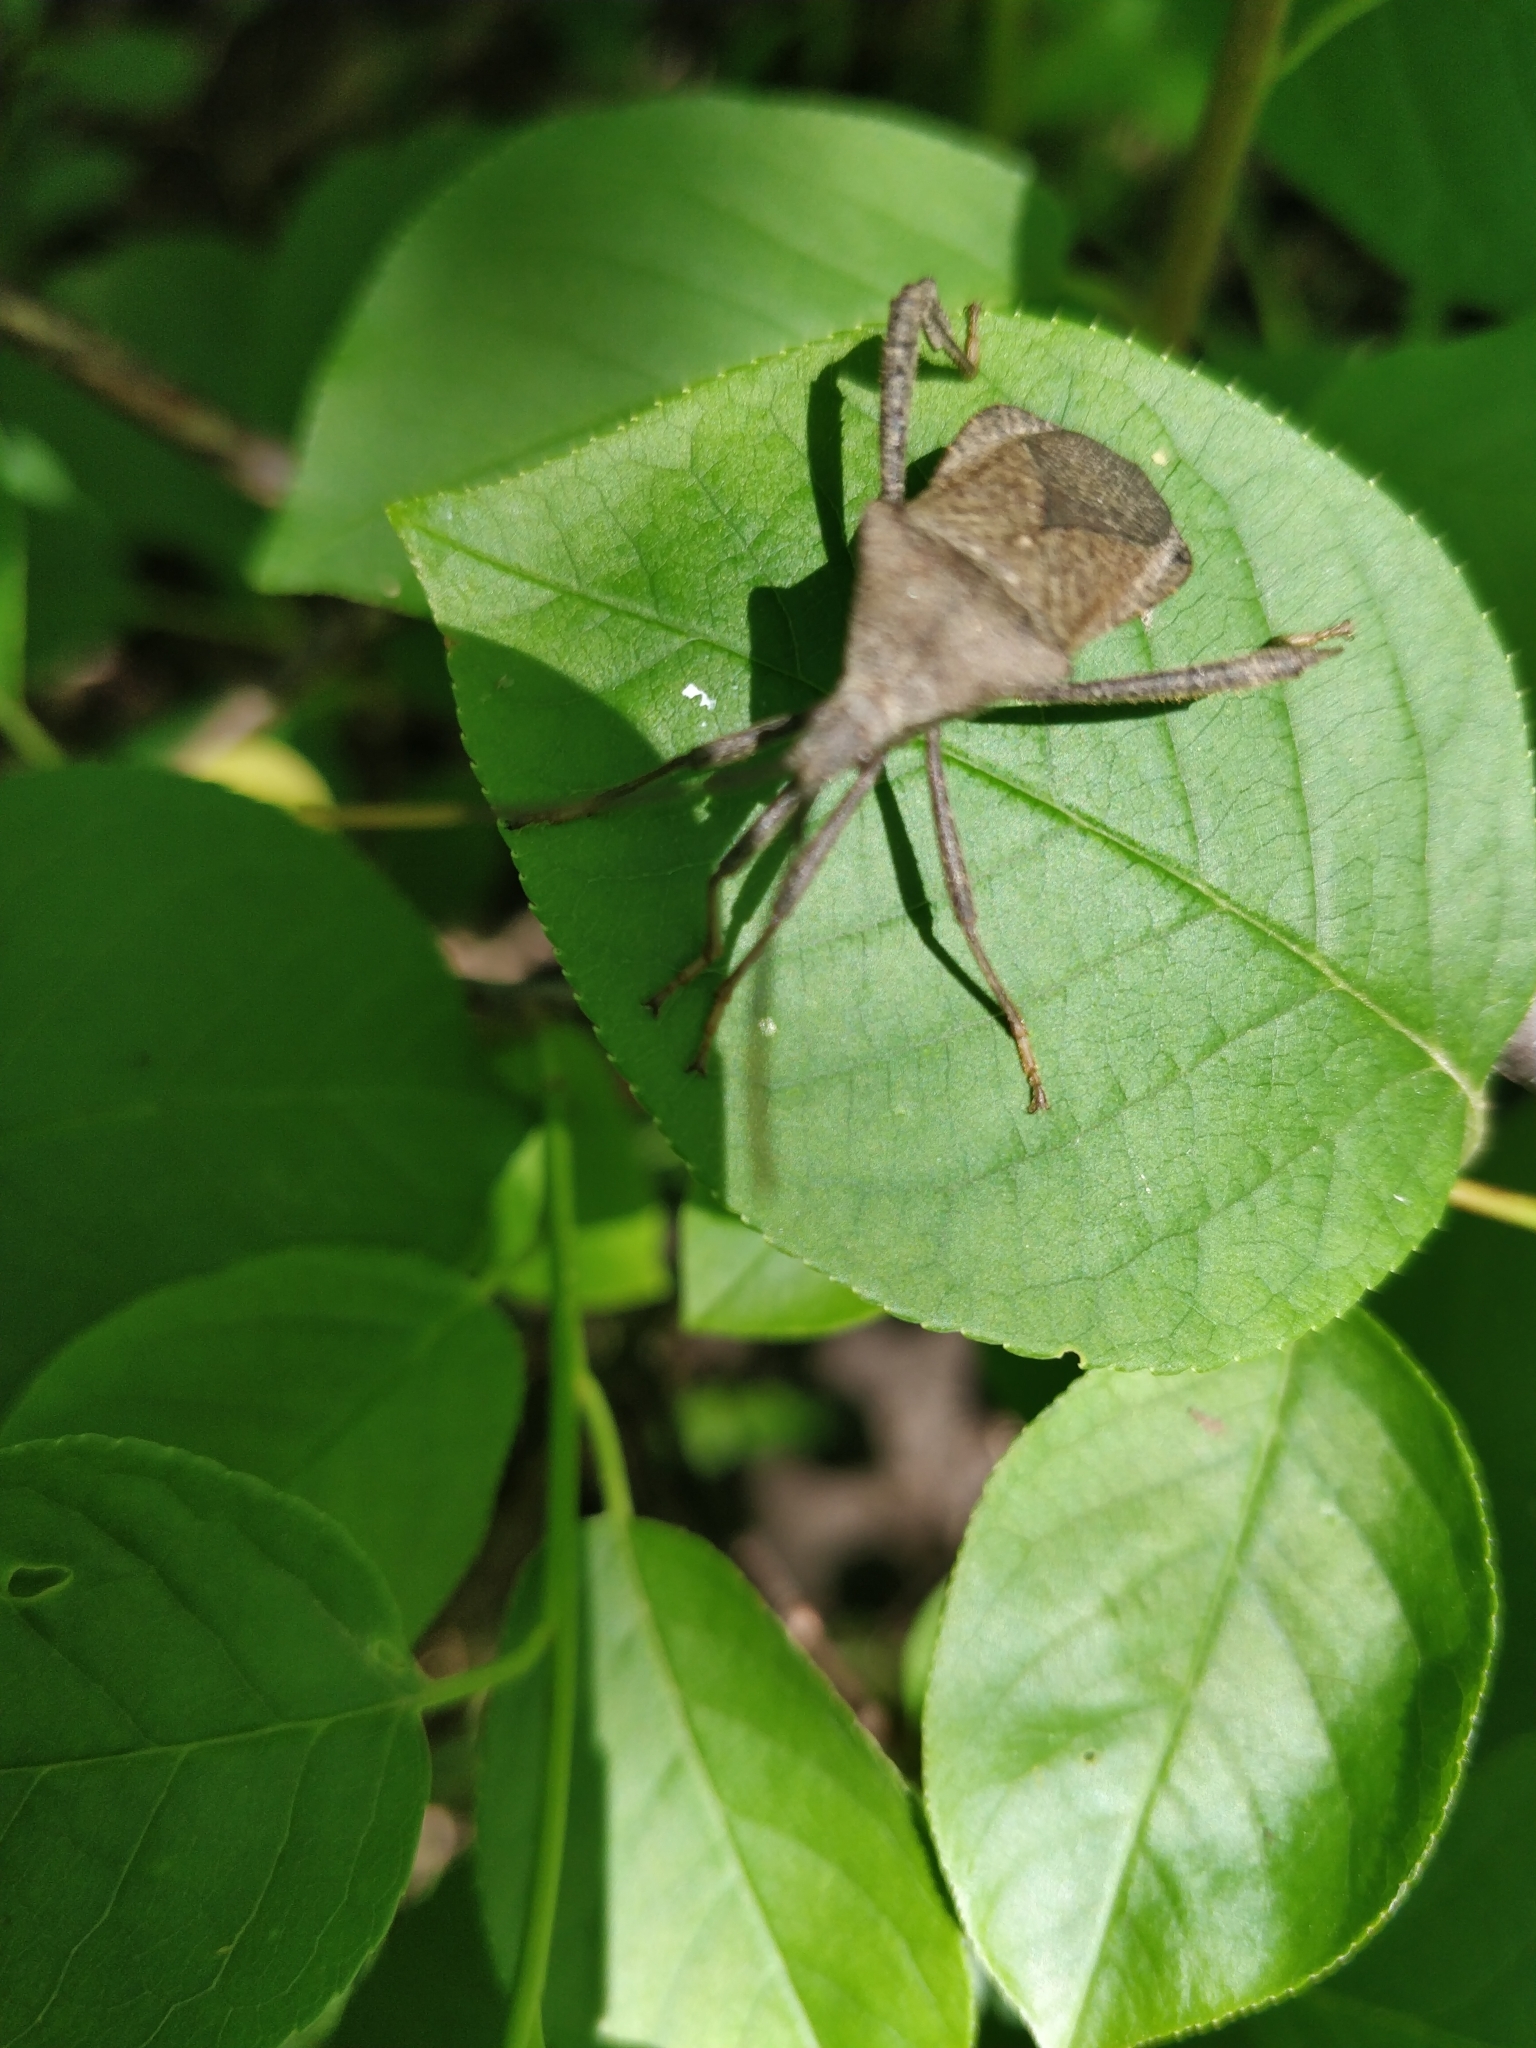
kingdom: Animalia
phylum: Arthropoda
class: Insecta
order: Hemiptera
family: Coreidae
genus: Acanthocephala
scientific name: Acanthocephala terminalis
